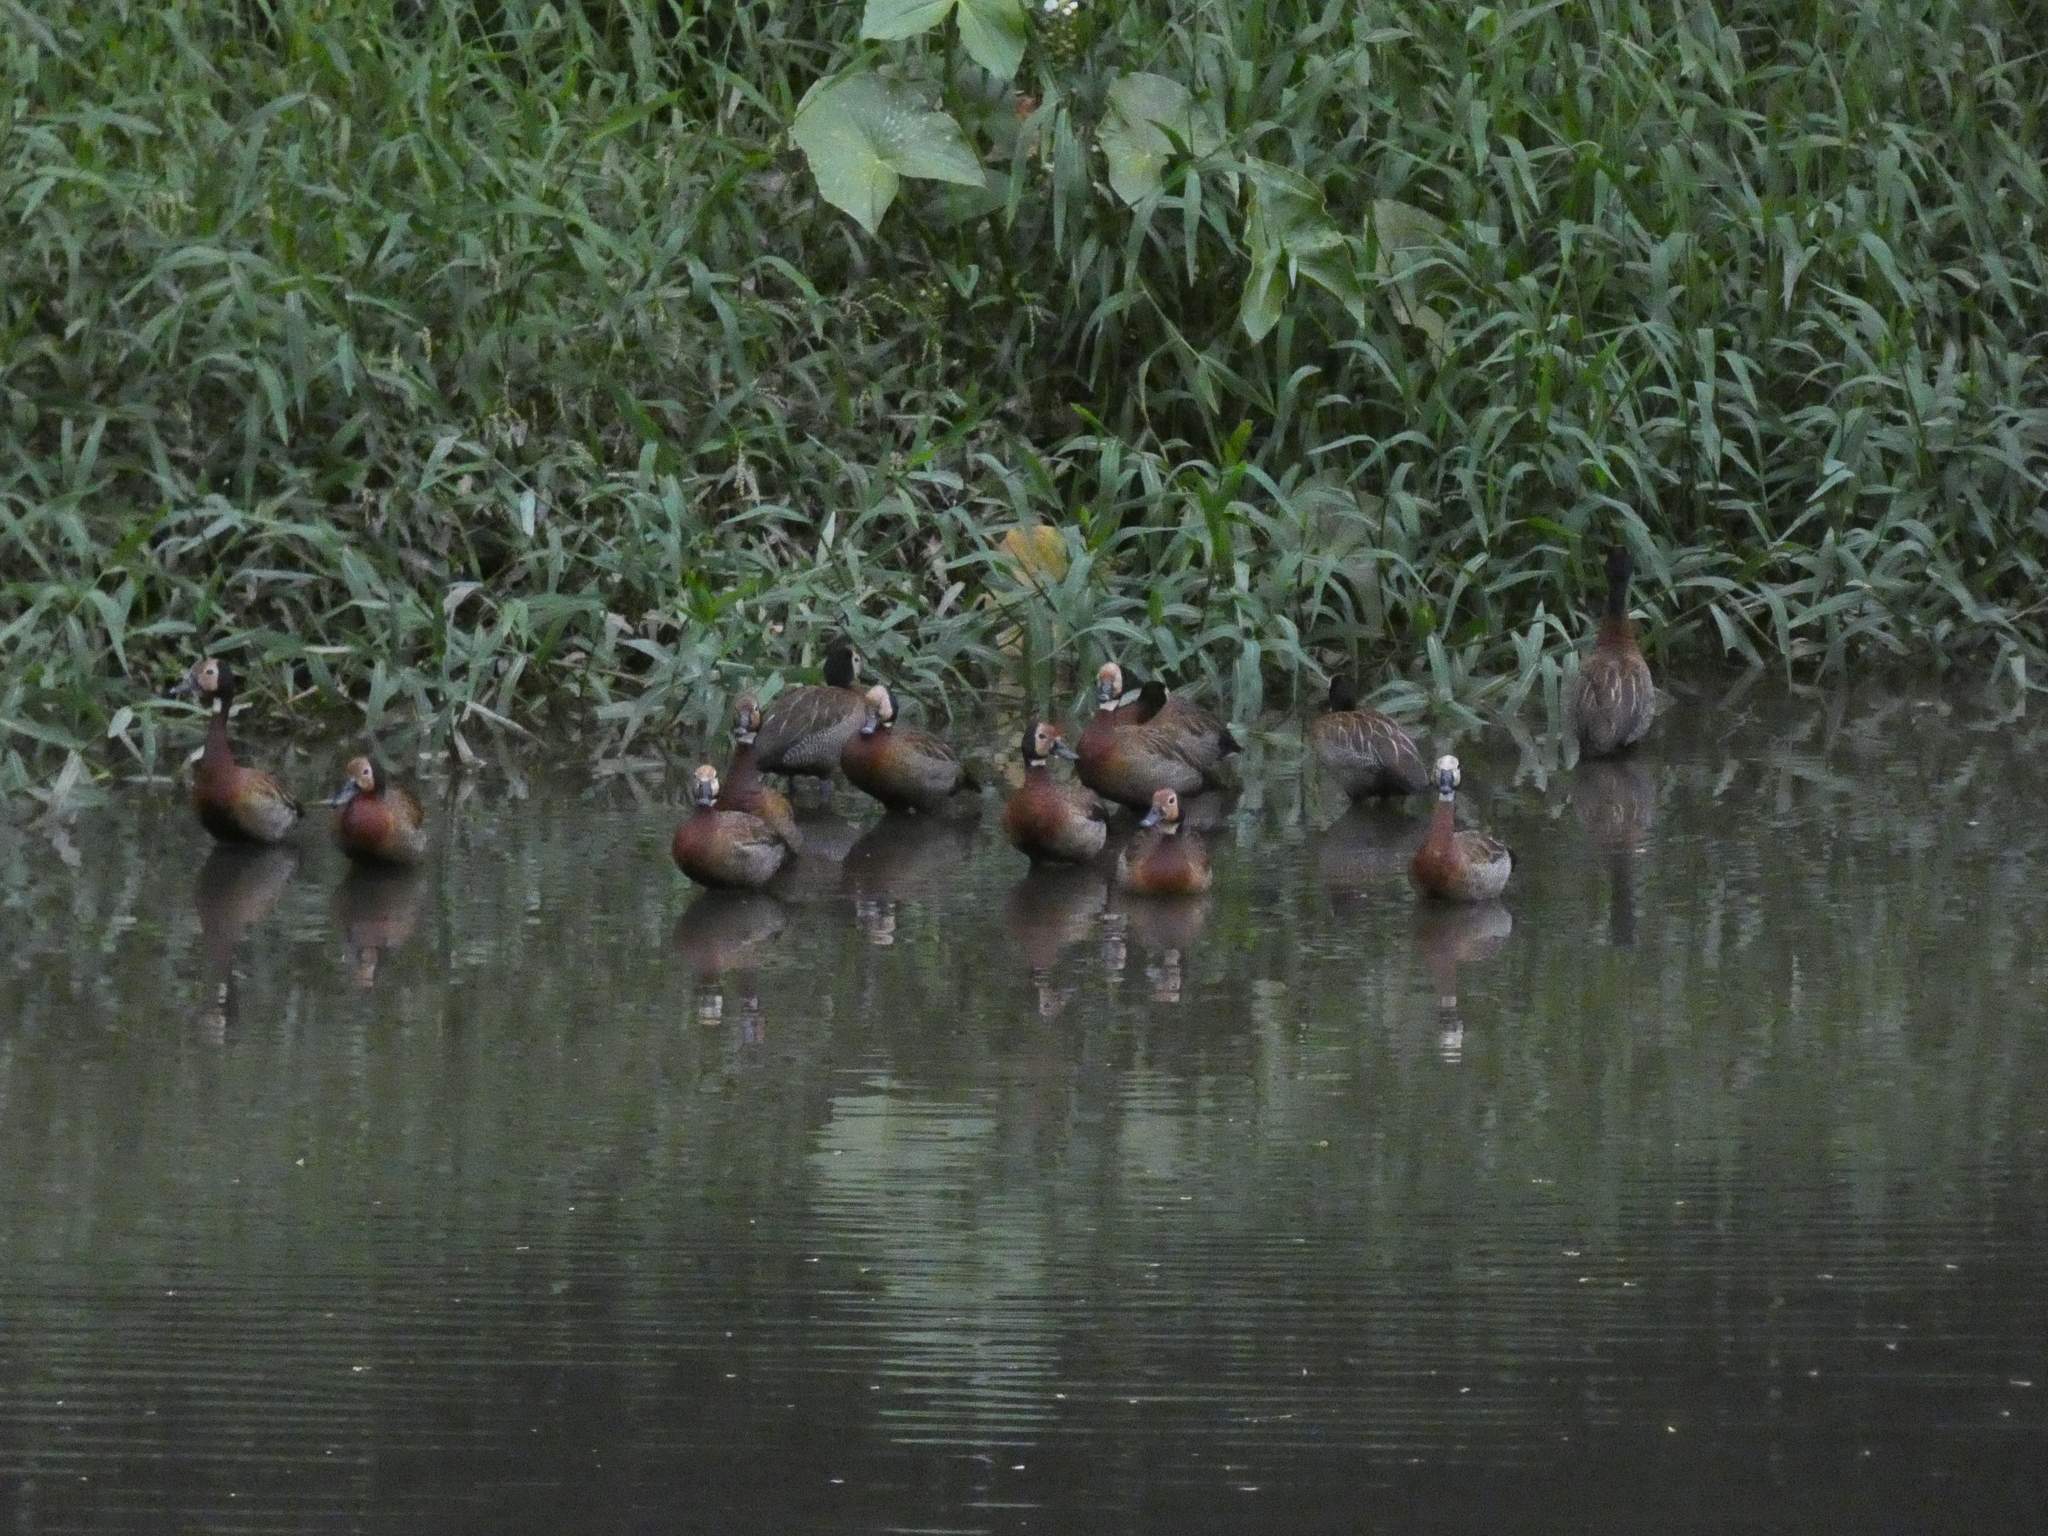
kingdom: Animalia
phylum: Chordata
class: Aves
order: Anseriformes
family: Anatidae
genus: Dendrocygna
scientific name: Dendrocygna viduata
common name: White-faced whistling duck
